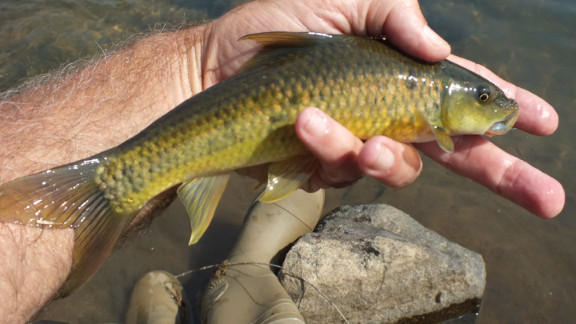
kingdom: Animalia
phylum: Chordata
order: Cypriniformes
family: Cyprinidae
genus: Labeo
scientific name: Labeo molybdinus
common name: Leaden labeo
